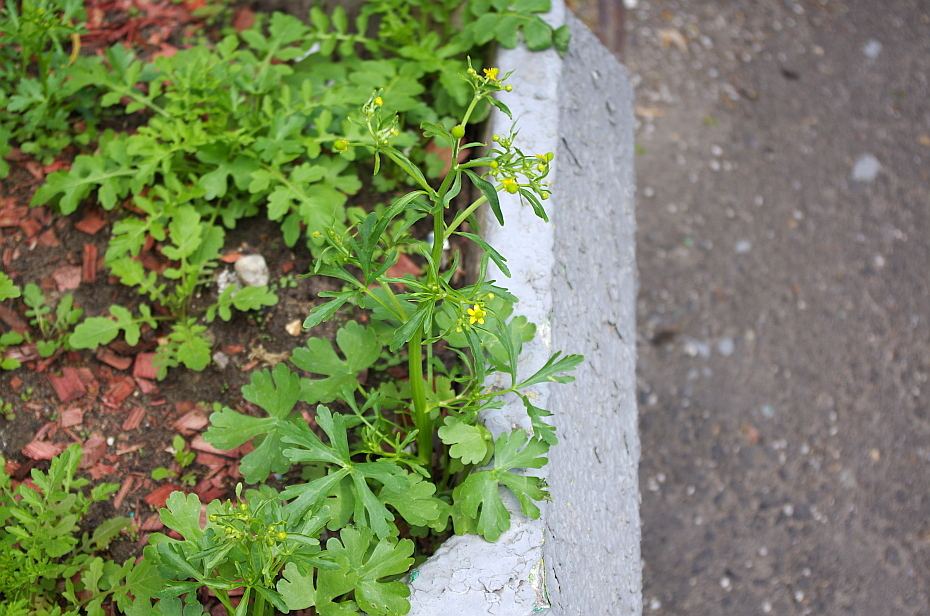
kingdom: Plantae
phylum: Tracheophyta
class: Magnoliopsida
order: Ranunculales
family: Ranunculaceae
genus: Ranunculus
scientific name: Ranunculus sceleratus
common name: Celery-leaved buttercup
